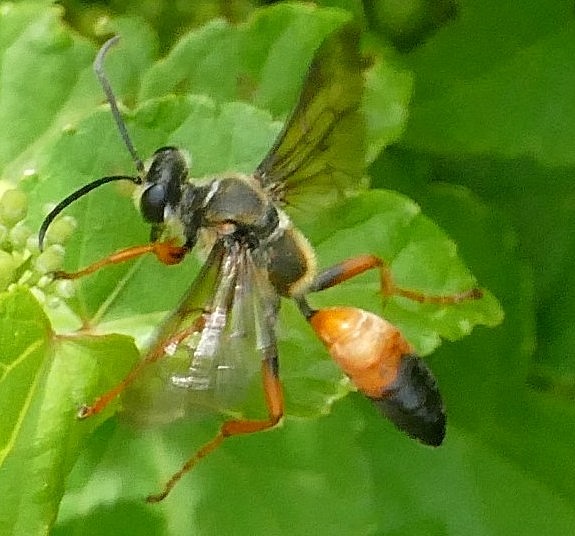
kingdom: Animalia
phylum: Arthropoda
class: Insecta
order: Hymenoptera
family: Sphecidae
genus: Sphex
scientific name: Sphex ichneumoneus
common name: Great golden digger wasp
